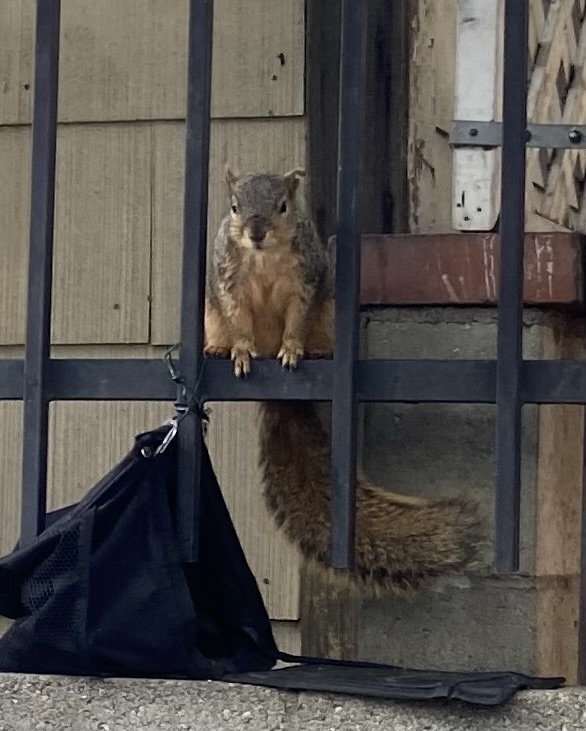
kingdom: Animalia
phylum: Chordata
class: Mammalia
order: Rodentia
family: Sciuridae
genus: Sciurus
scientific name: Sciurus niger
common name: Fox squirrel
